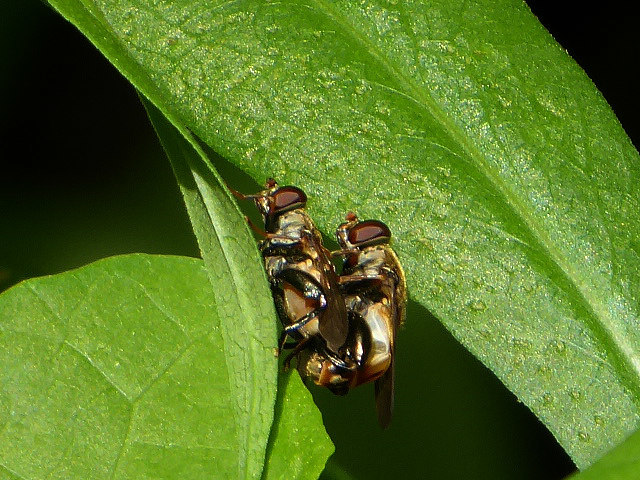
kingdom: Animalia
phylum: Arthropoda
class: Insecta
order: Diptera
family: Syrphidae
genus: Tropidia
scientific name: Tropidia quadrata
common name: Common thick-legged fly
